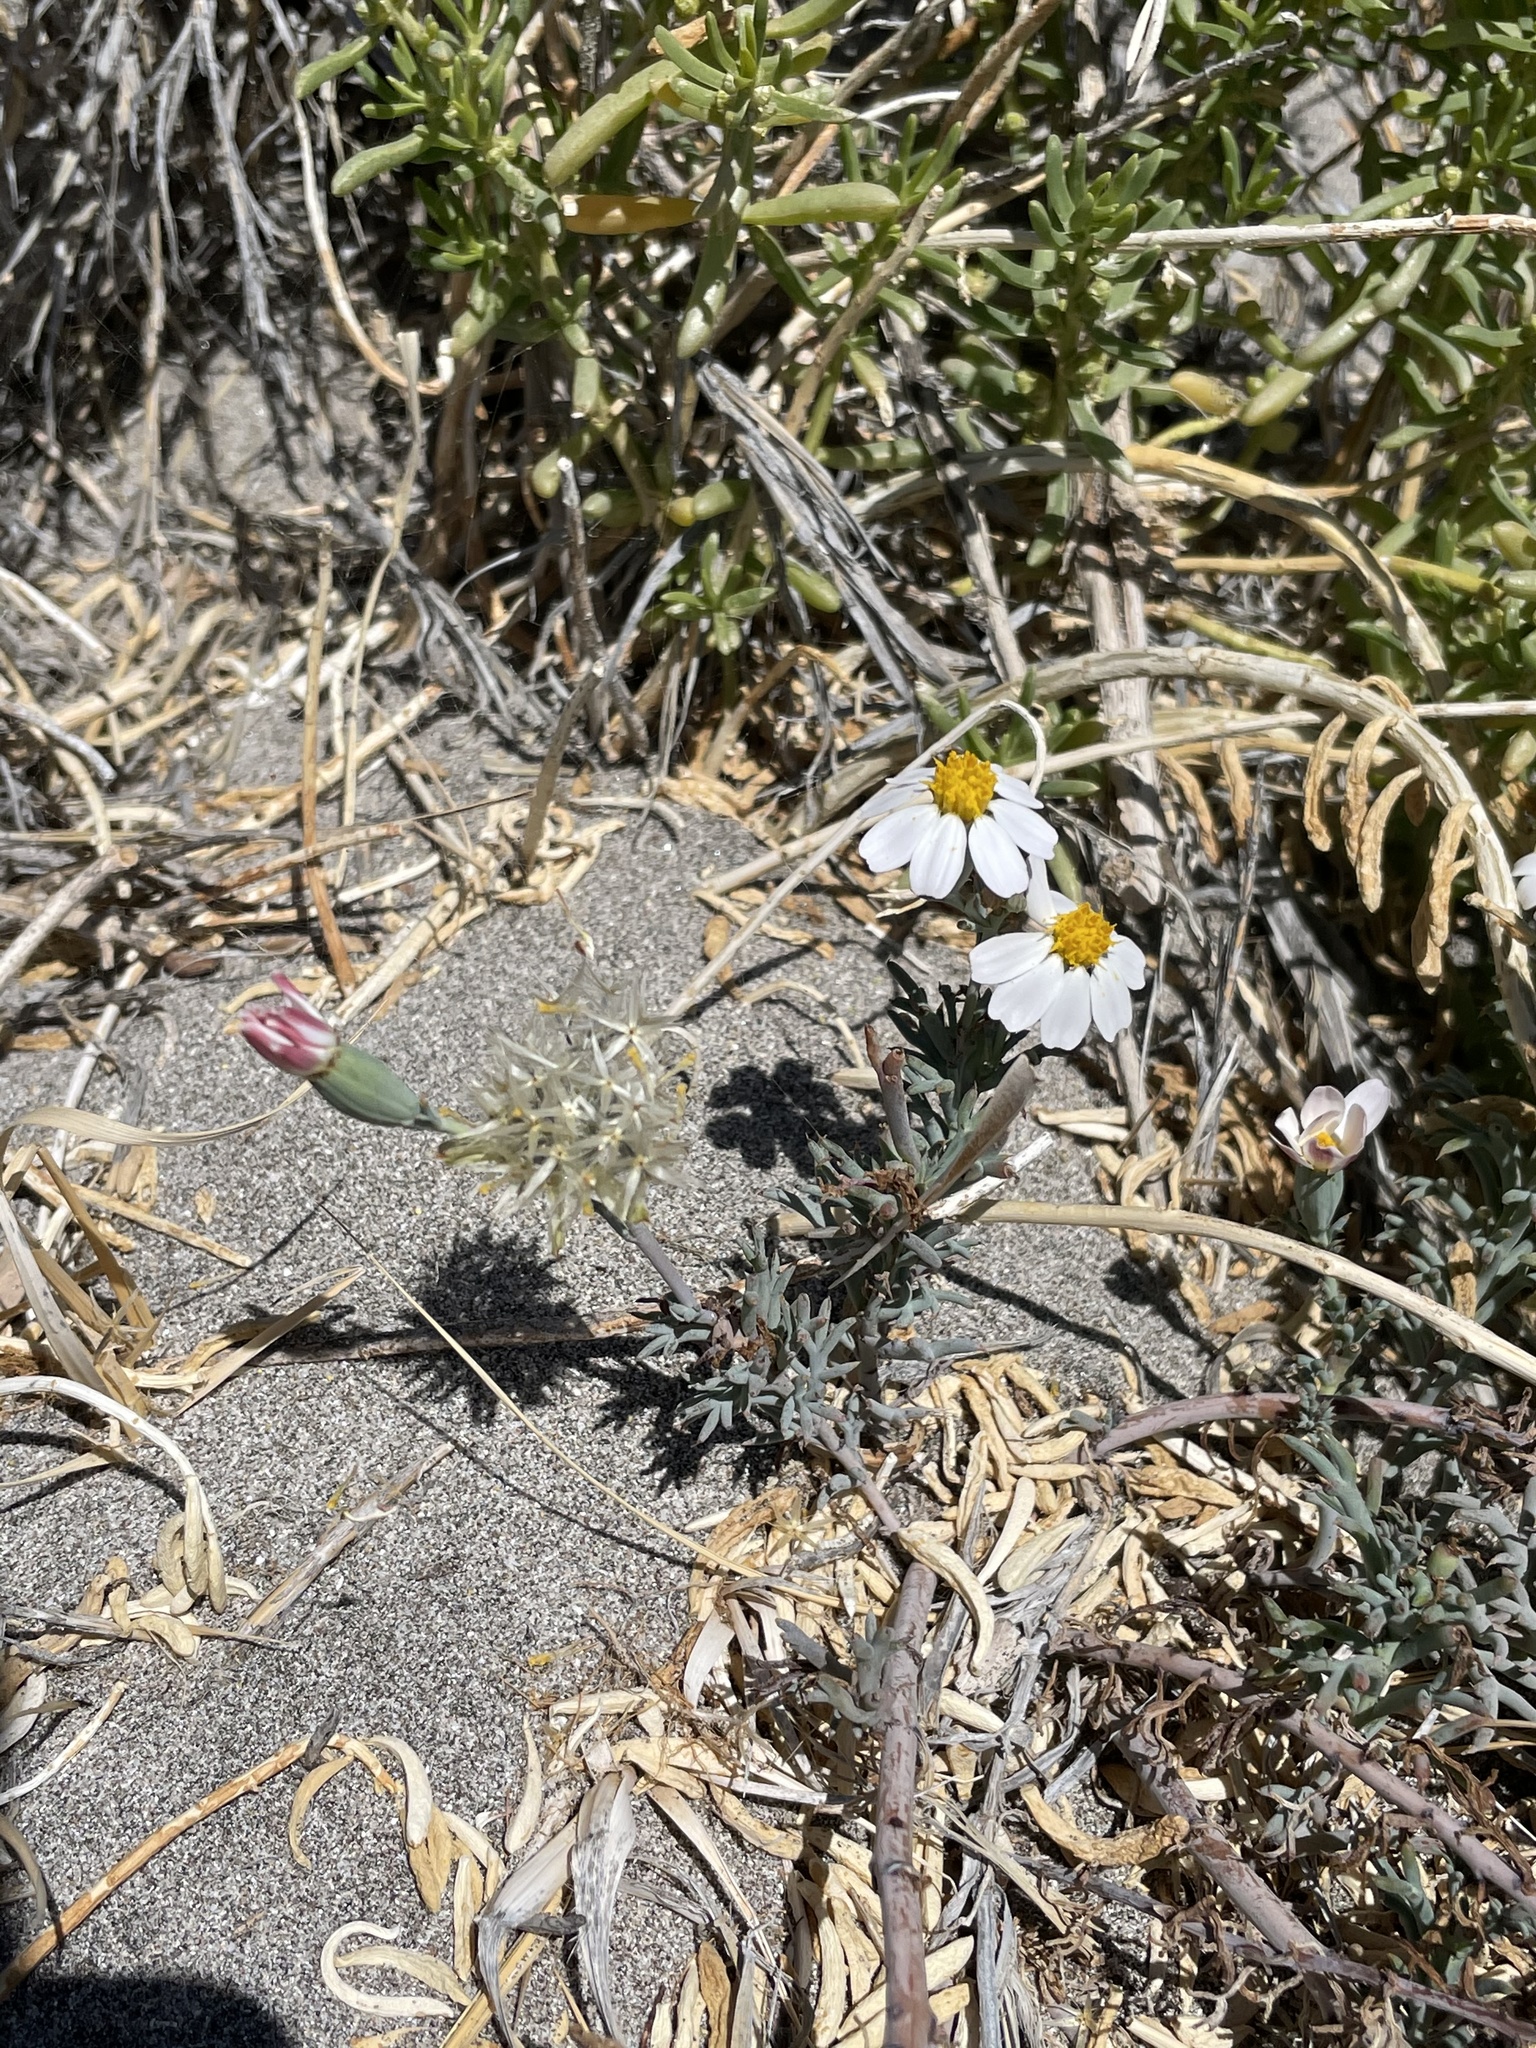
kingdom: Plantae
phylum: Tracheophyta
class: Magnoliopsida
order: Asterales
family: Asteraceae
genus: Nicolletia
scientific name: Nicolletia trifida
